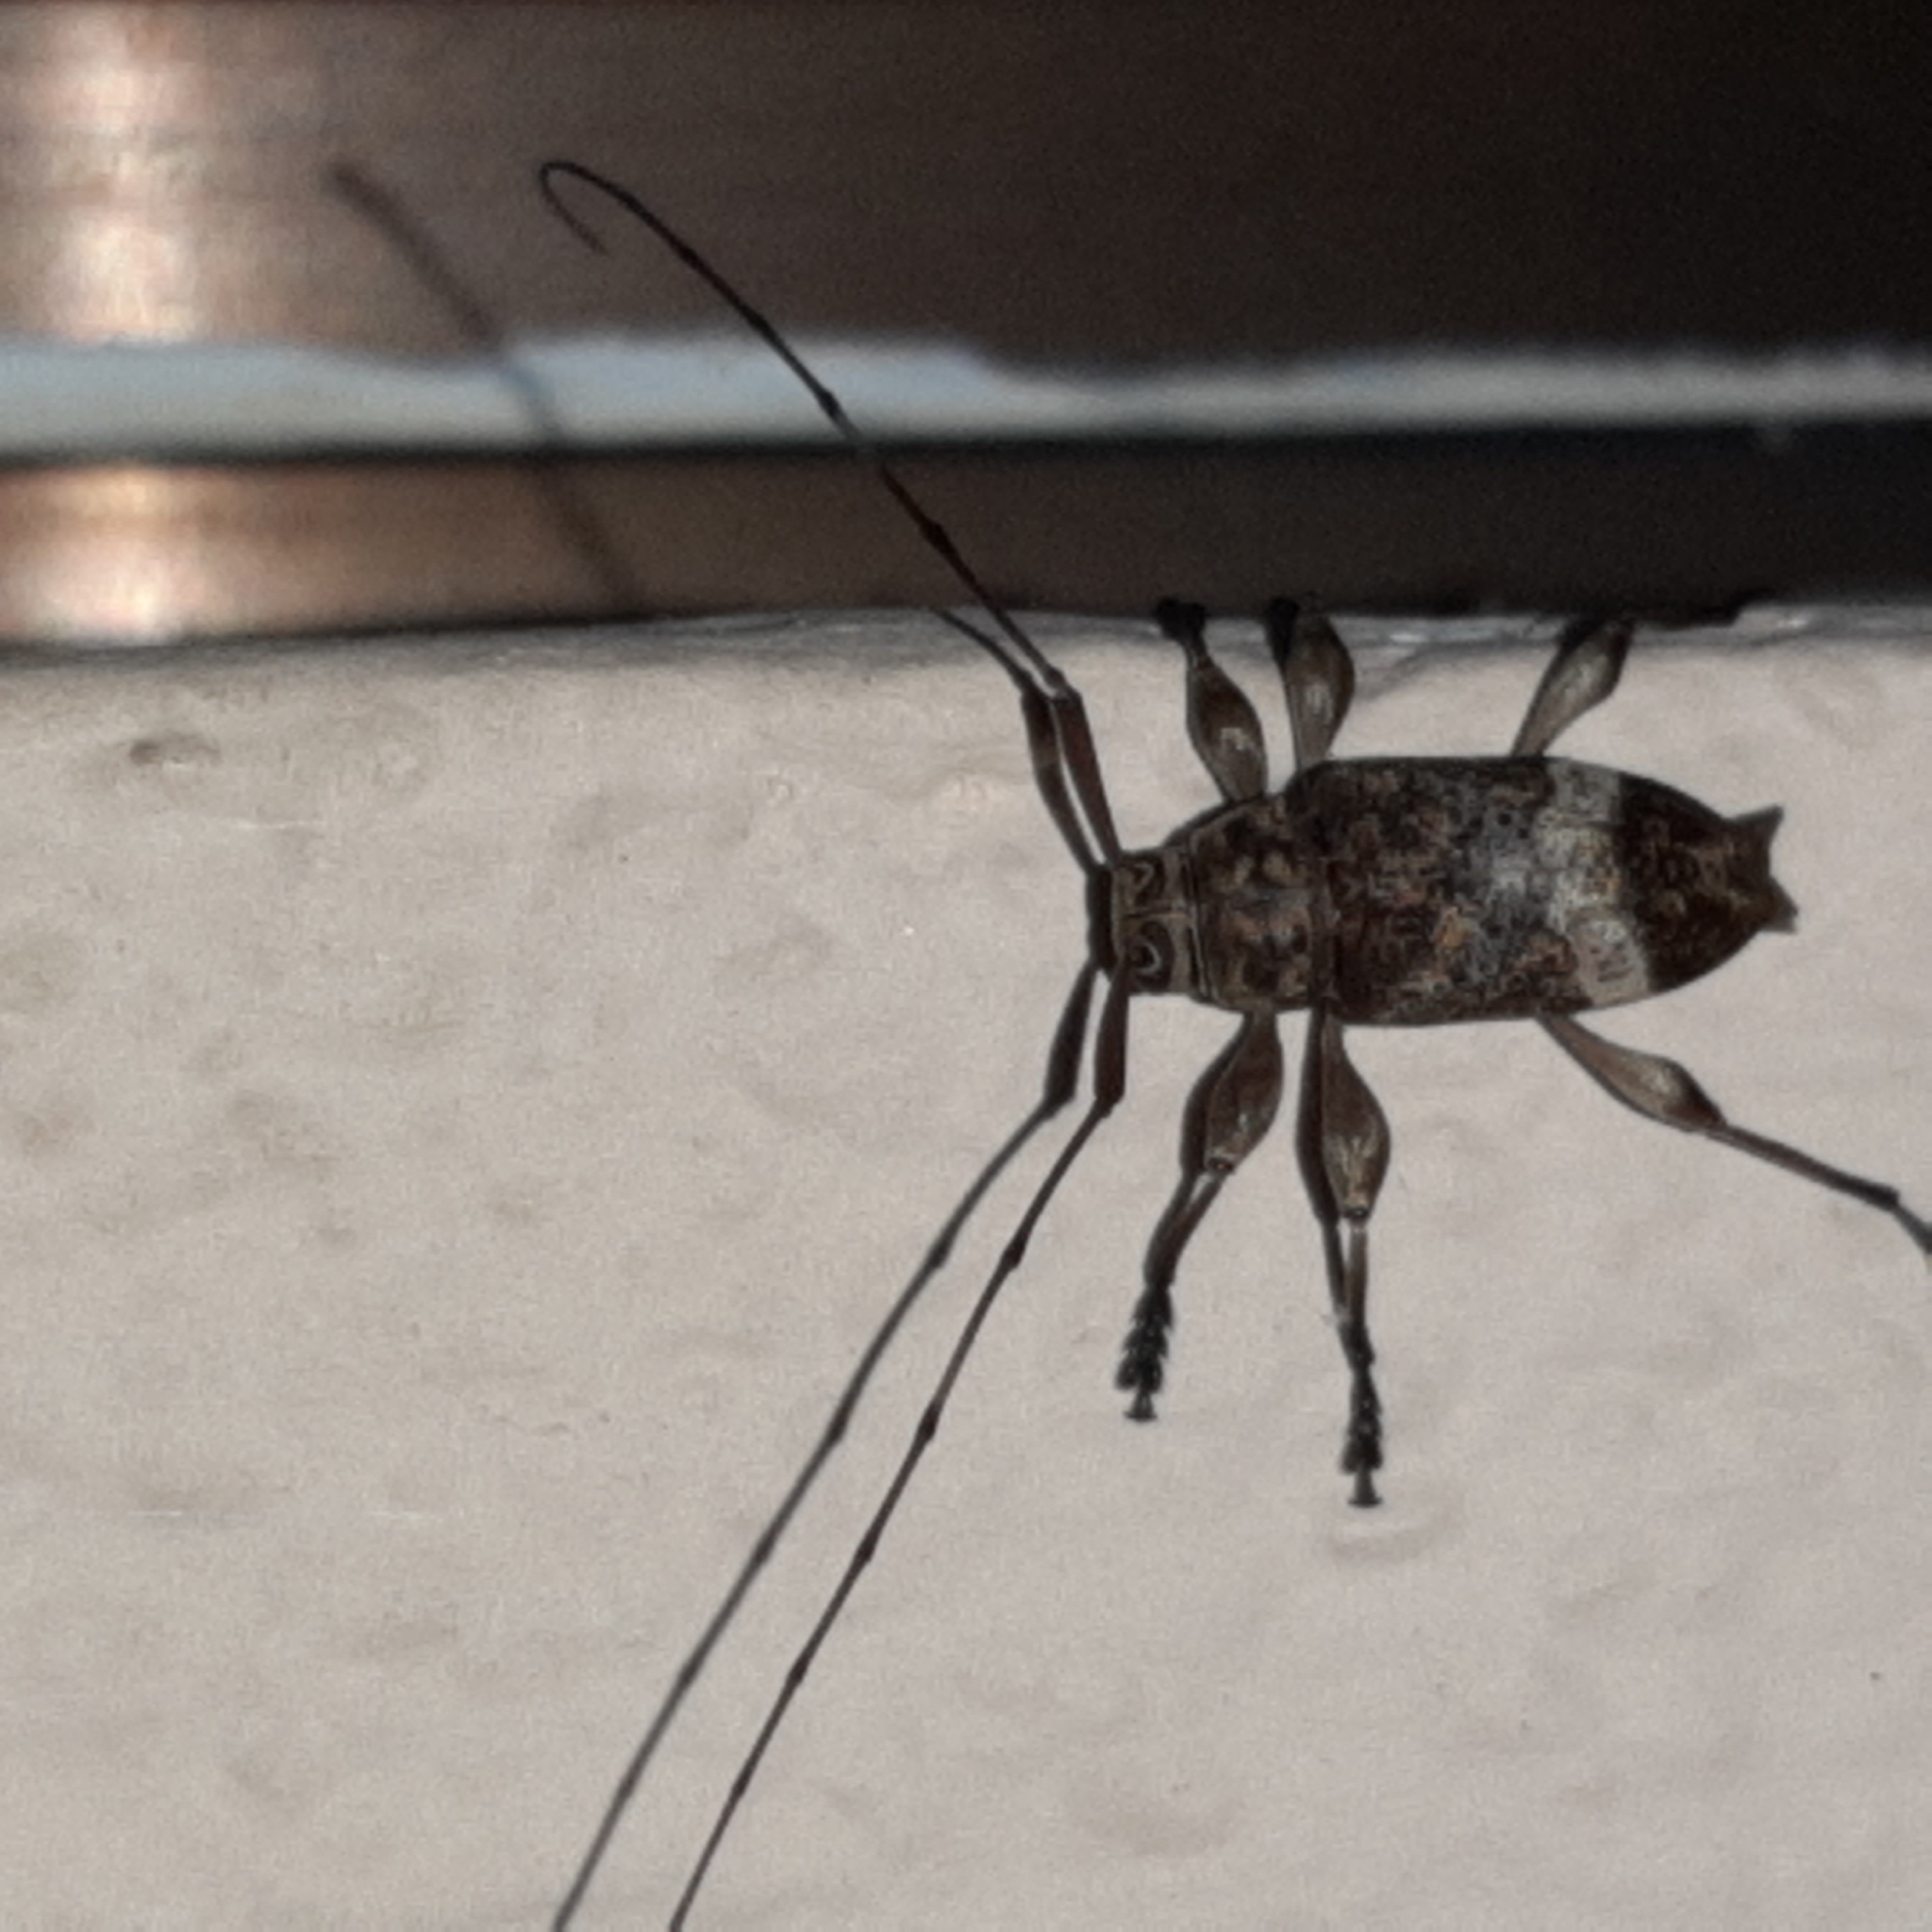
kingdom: Animalia
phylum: Arthropoda
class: Insecta
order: Coleoptera
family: Cerambycidae
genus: Atrypanius
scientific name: Atrypanius implexus
